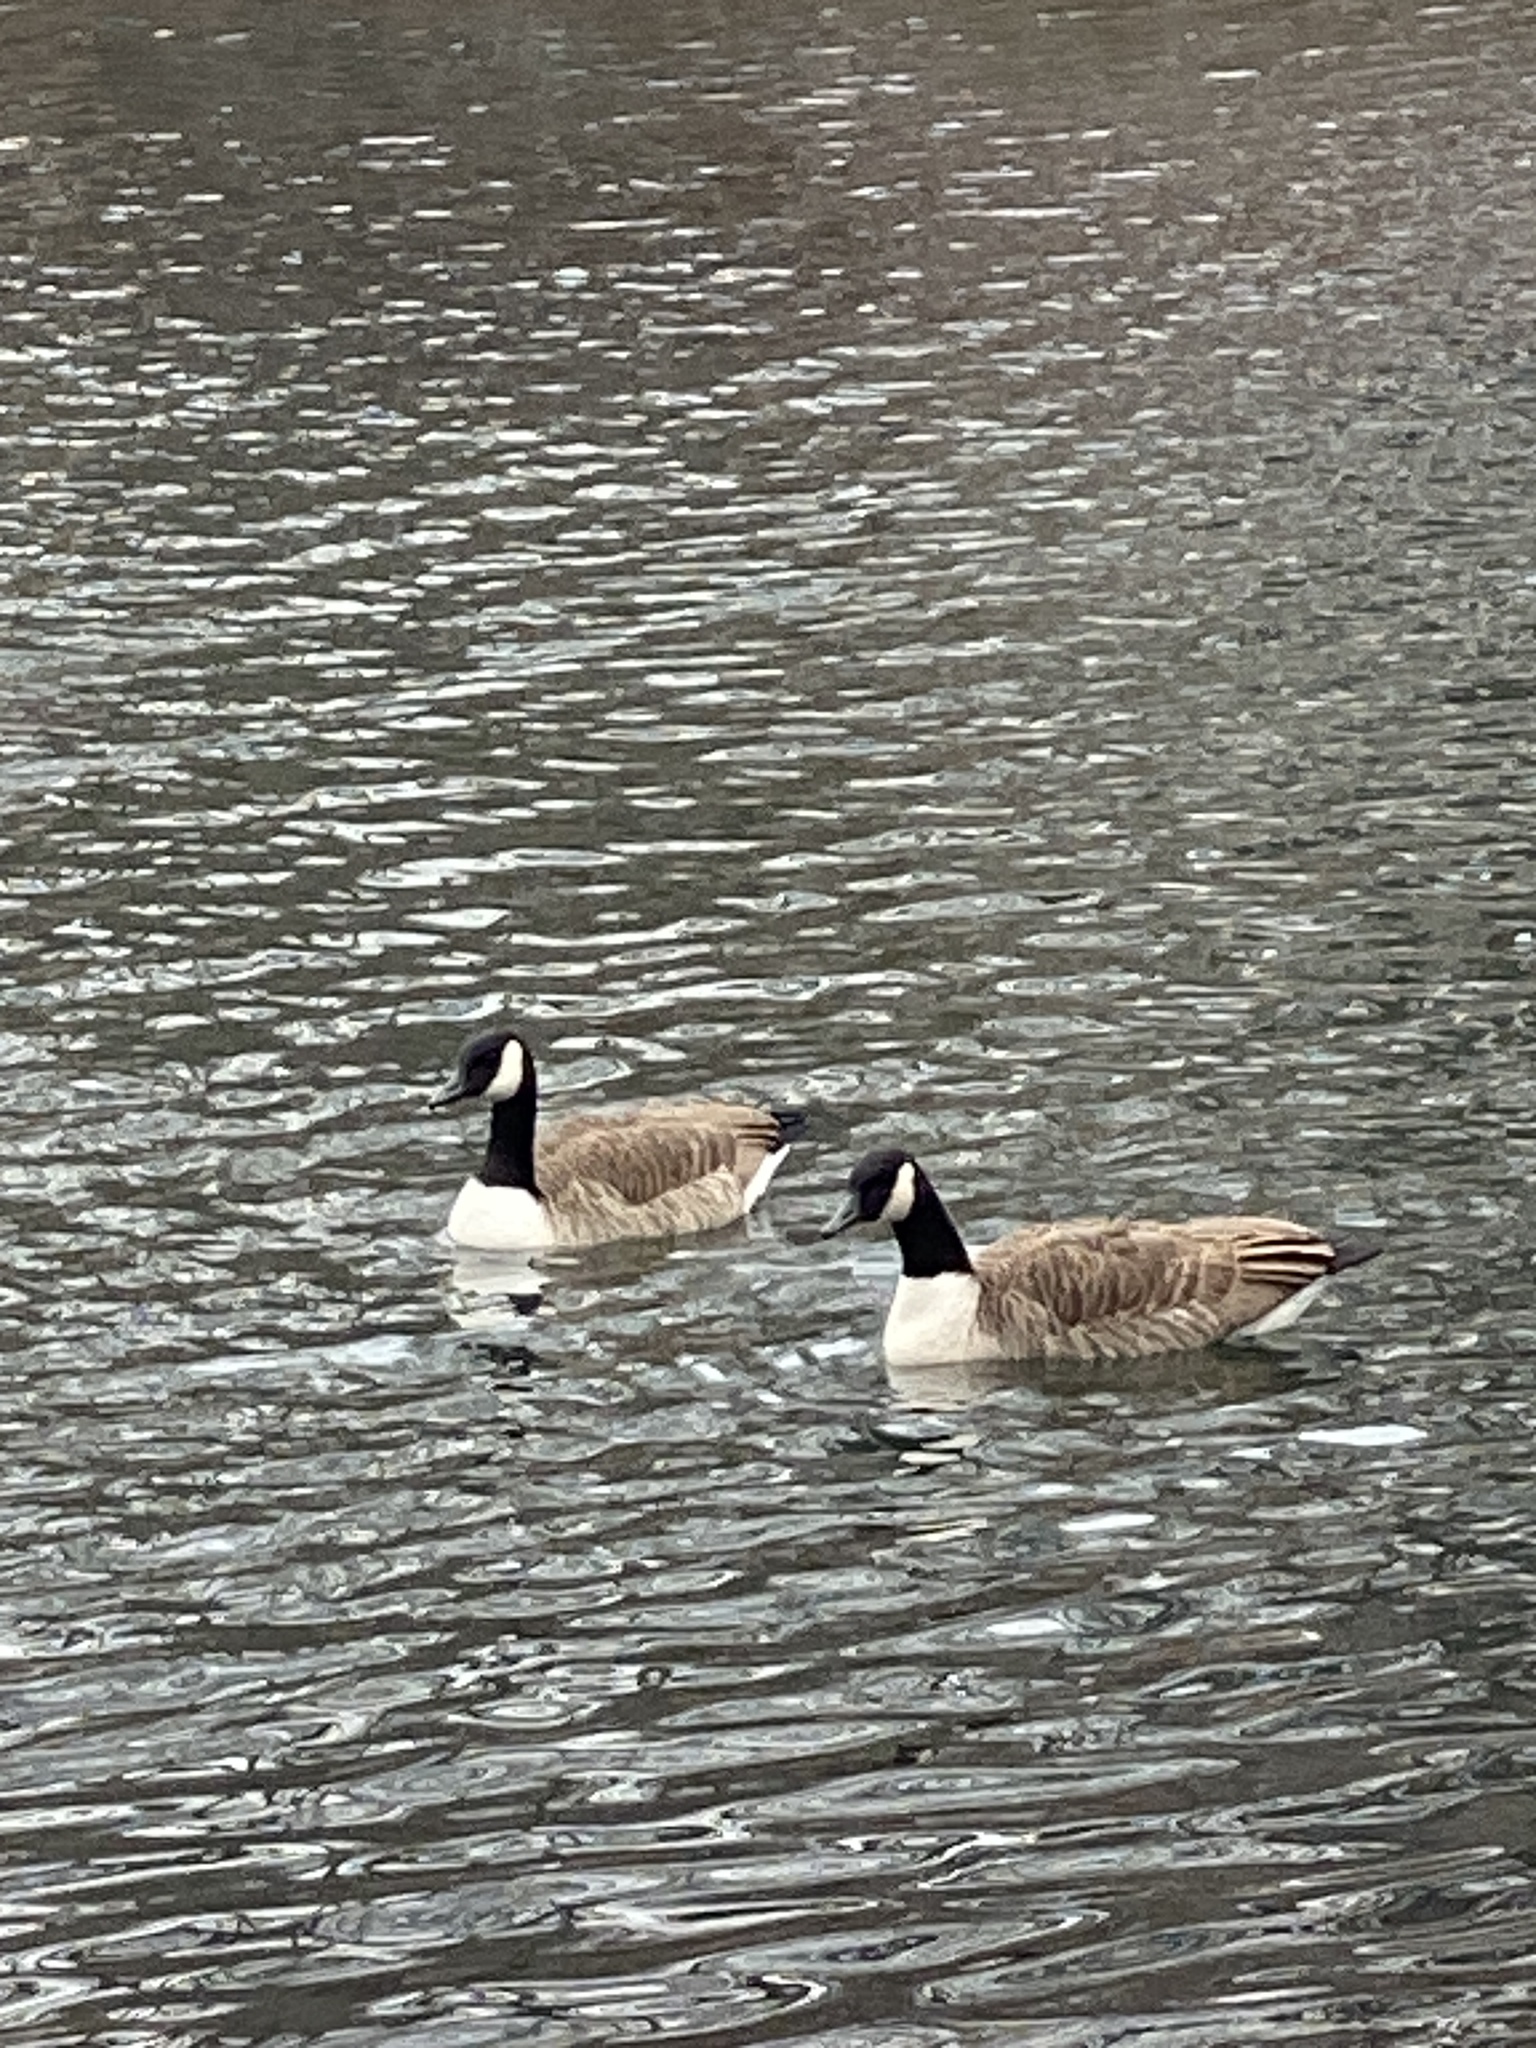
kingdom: Animalia
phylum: Chordata
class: Aves
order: Anseriformes
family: Anatidae
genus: Branta
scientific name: Branta canadensis
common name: Canada goose
